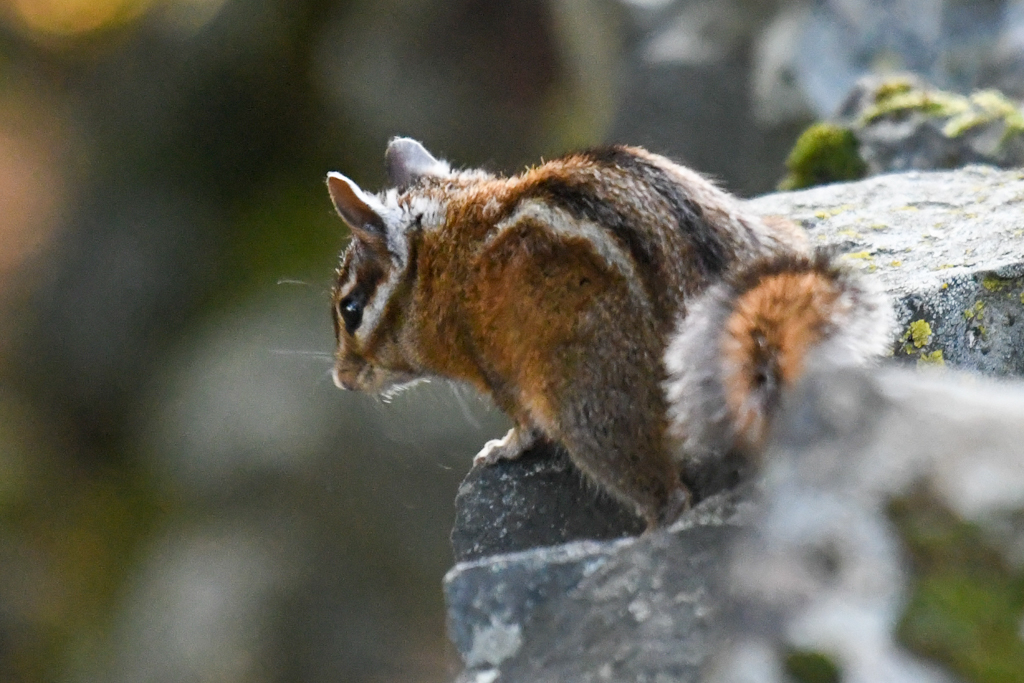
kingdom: Animalia
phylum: Chordata
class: Mammalia
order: Rodentia
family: Sciuridae
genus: Tamias
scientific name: Tamias sonomae
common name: Sonoma chipmunk
